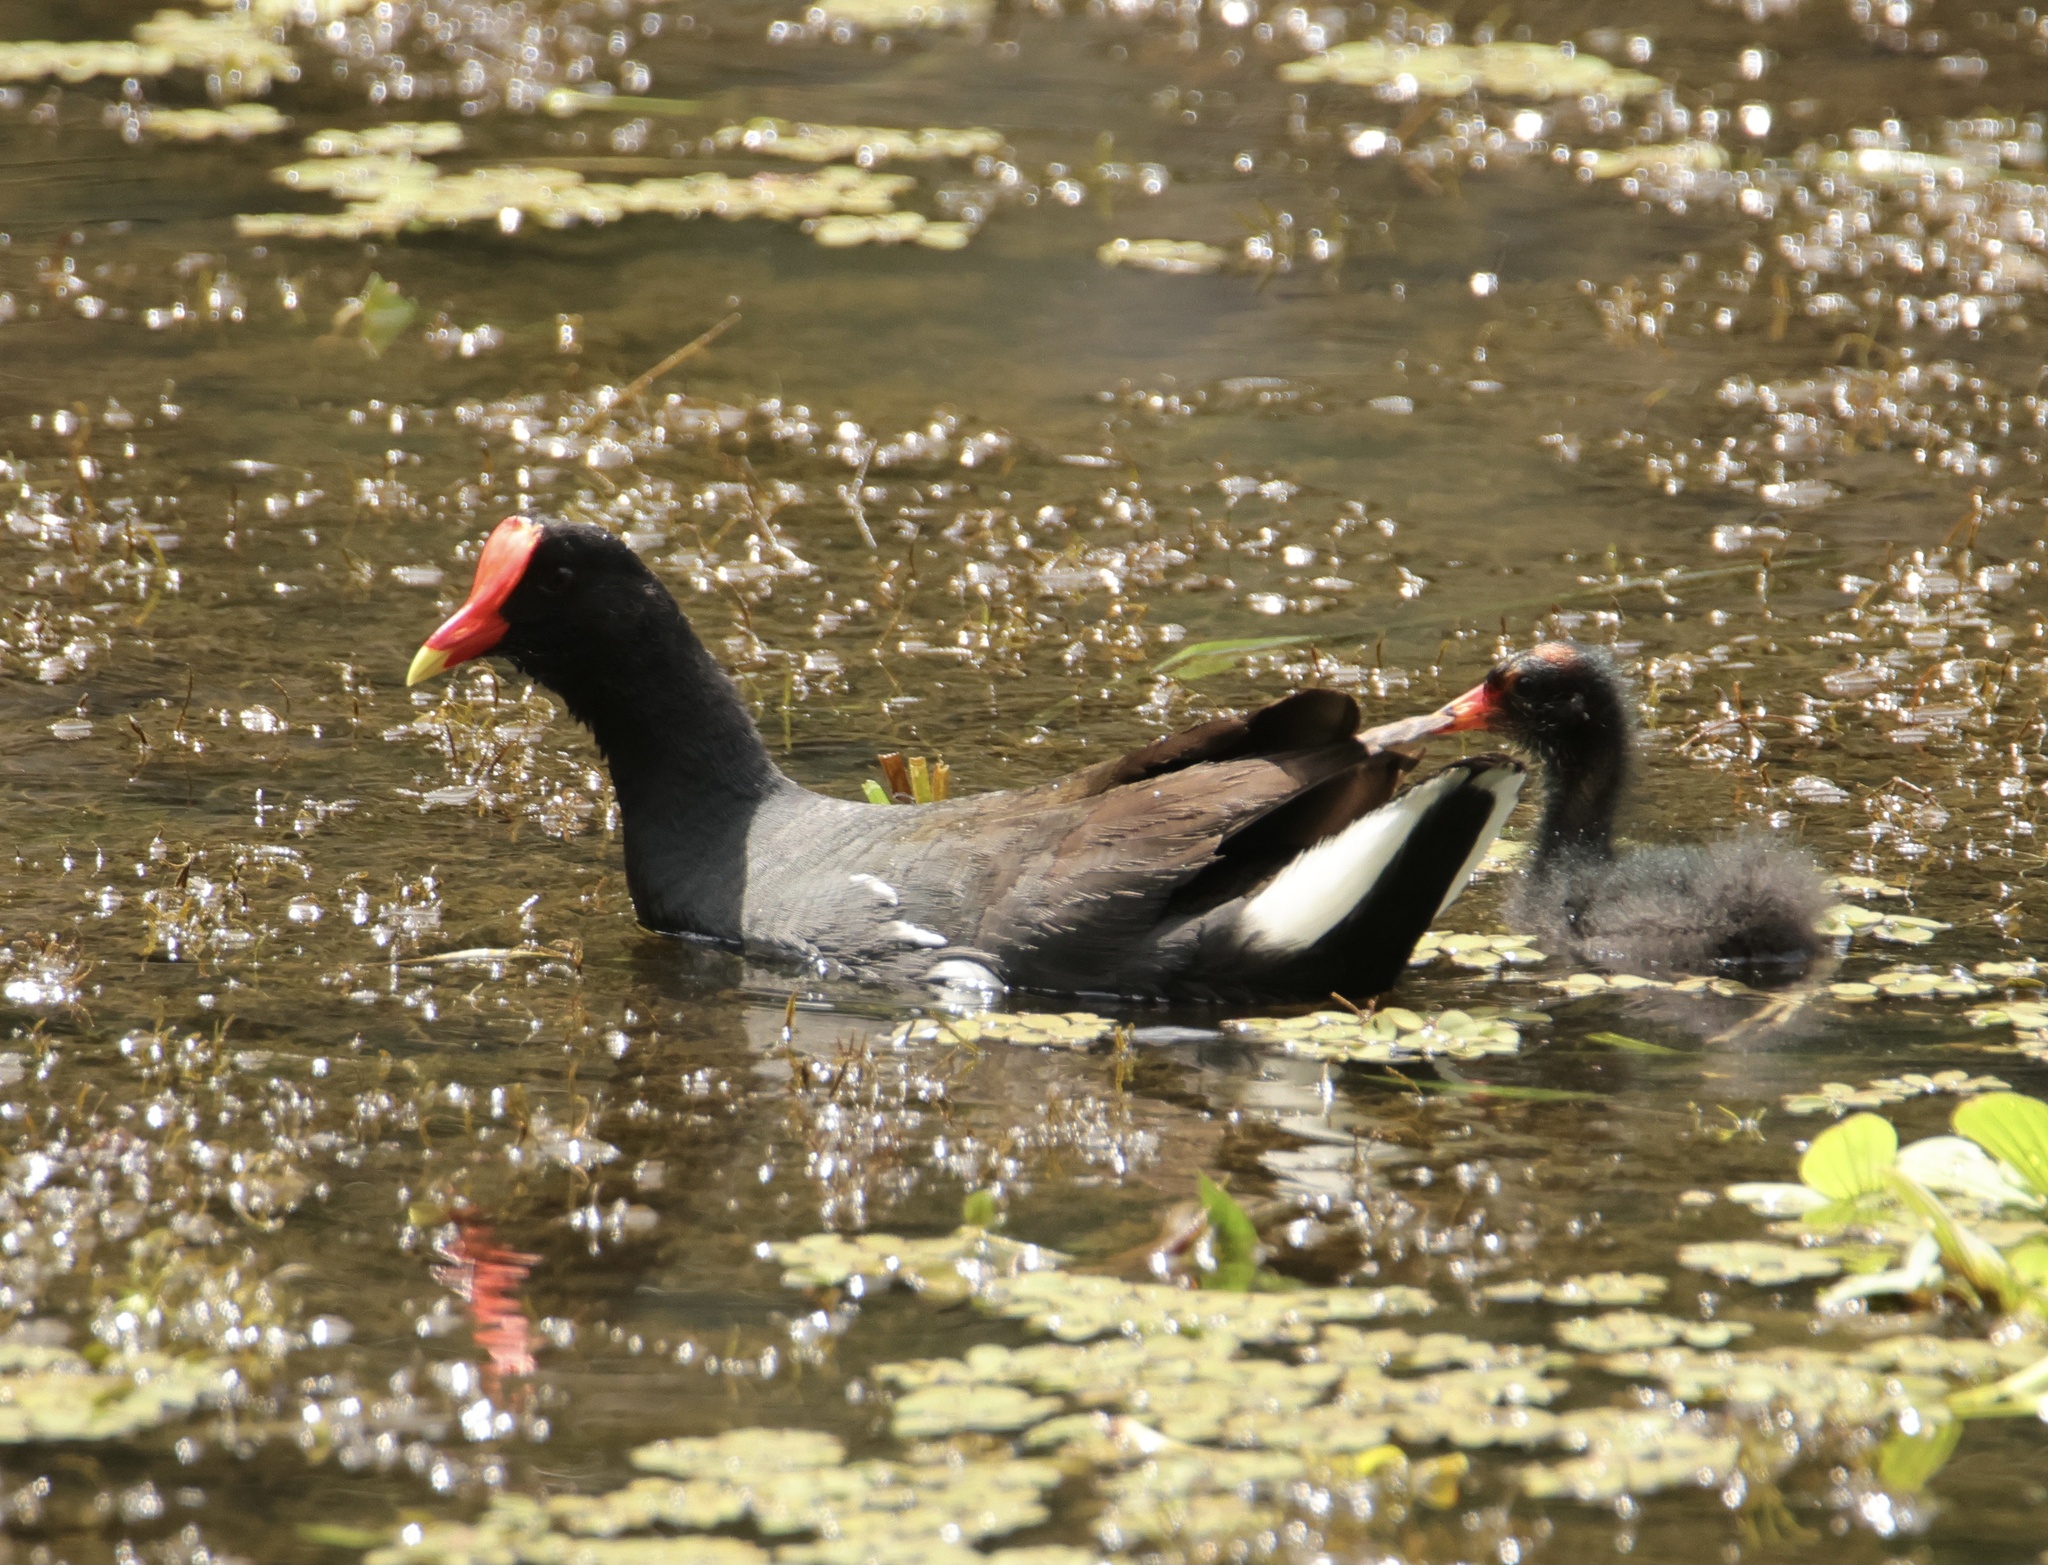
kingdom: Animalia
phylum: Chordata
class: Aves
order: Gruiformes
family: Rallidae
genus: Gallinula
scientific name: Gallinula chloropus
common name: Common moorhen
